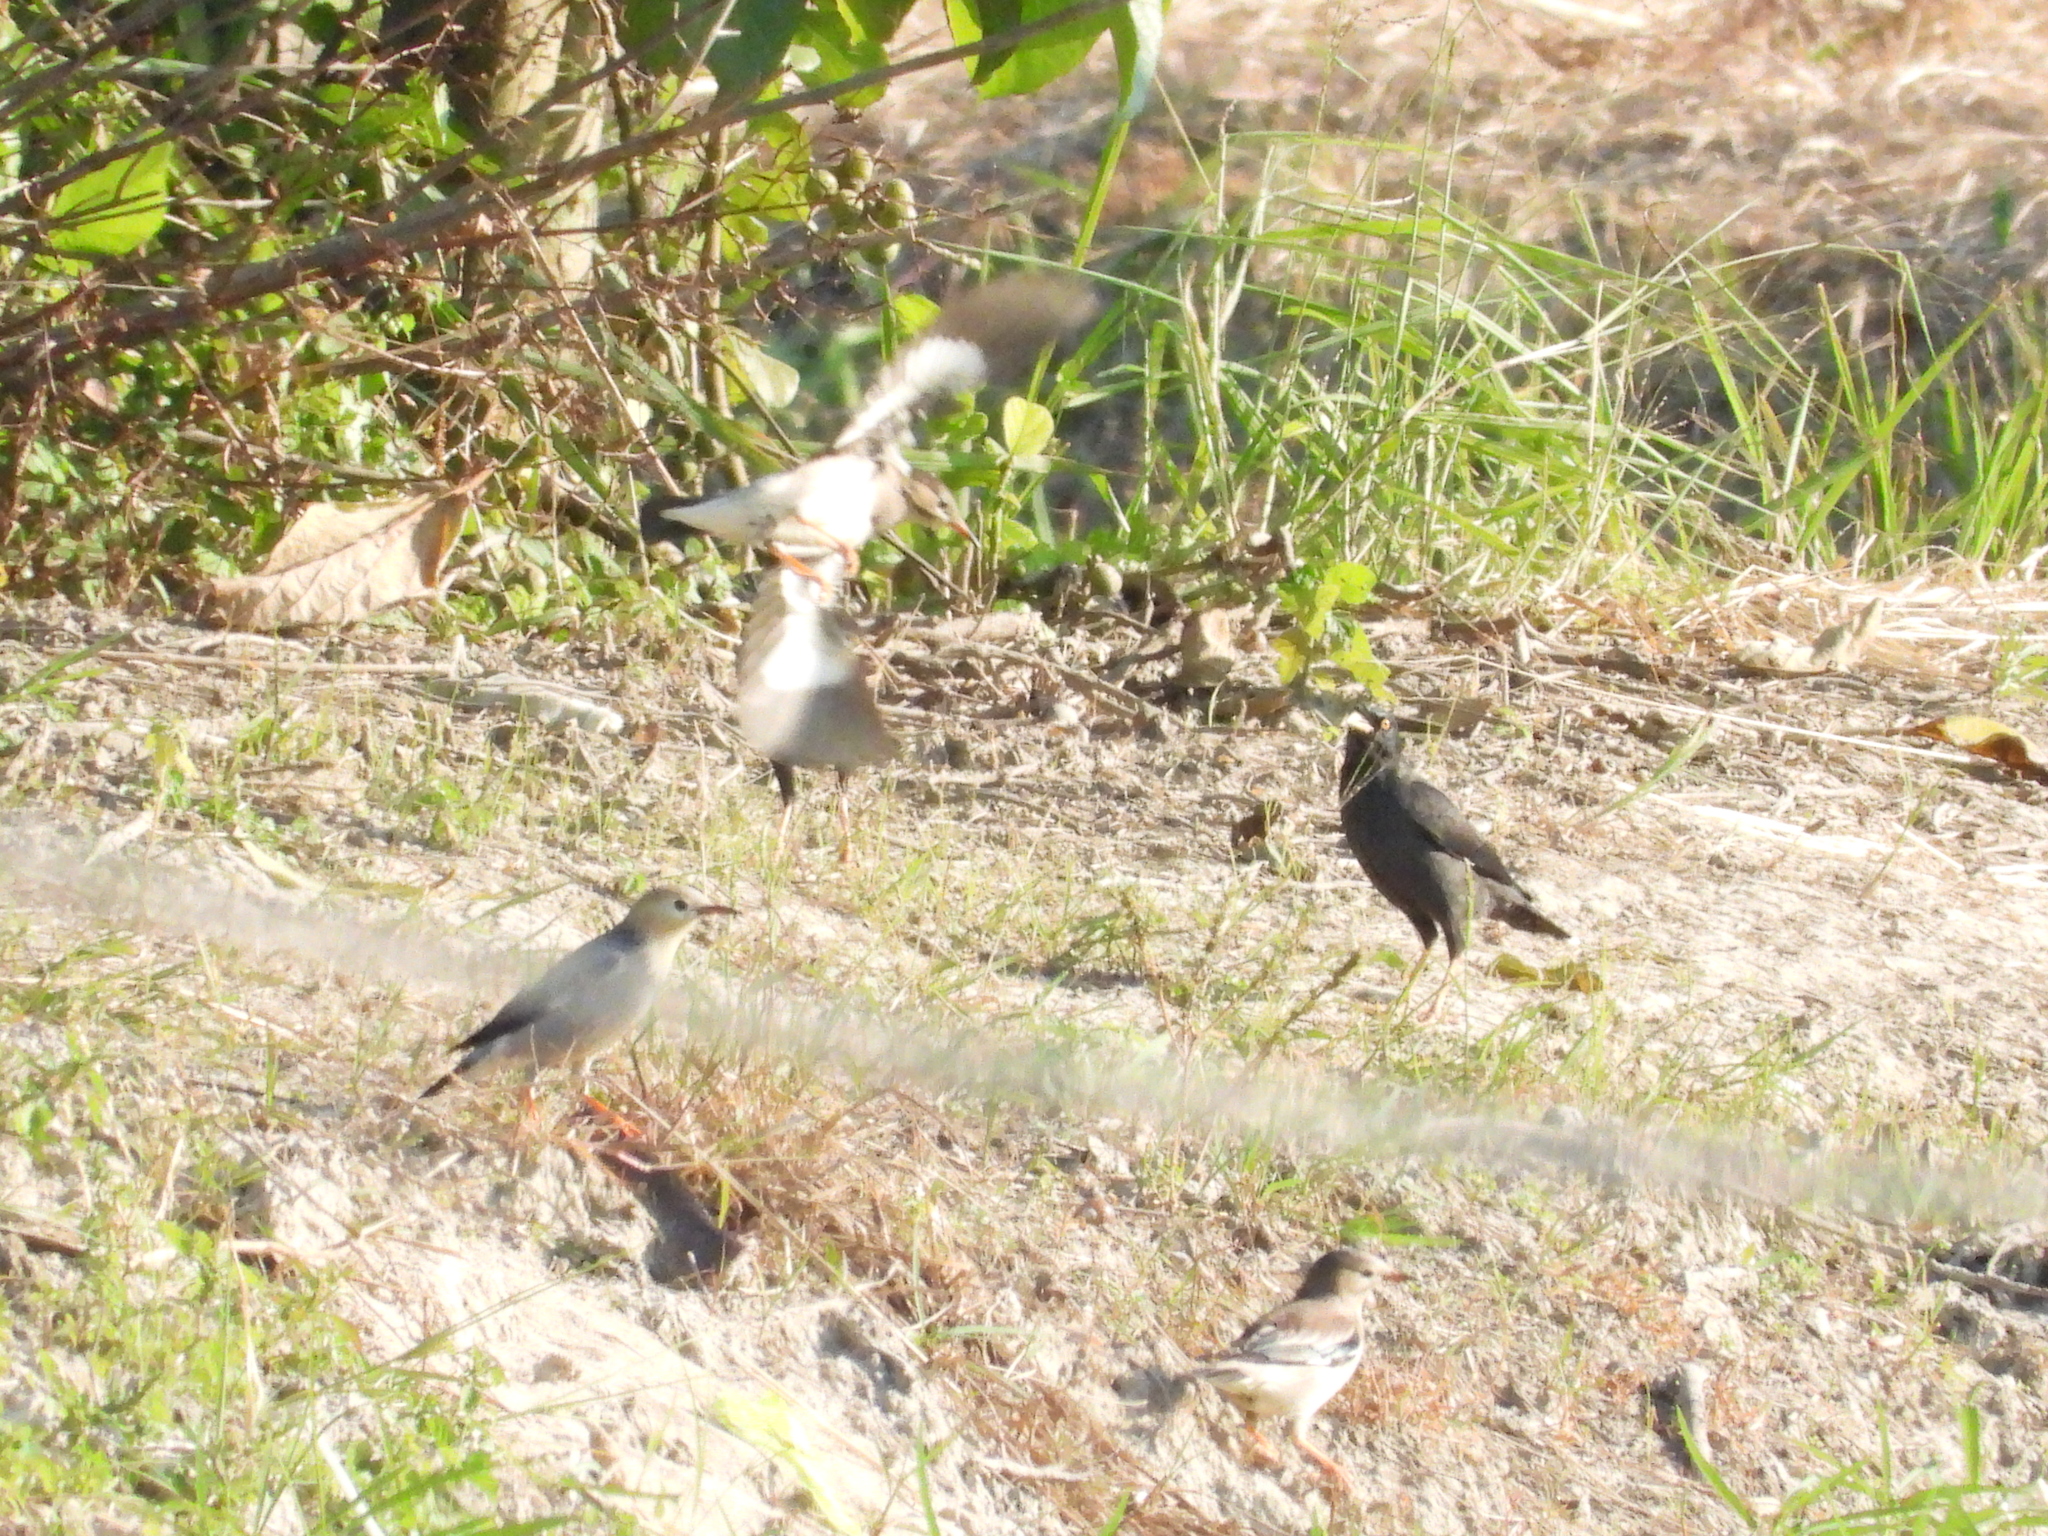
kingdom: Animalia
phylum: Chordata
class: Aves
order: Passeriformes
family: Sturnidae
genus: Spodiopsar
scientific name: Spodiopsar sericeus
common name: Red-billed starling
